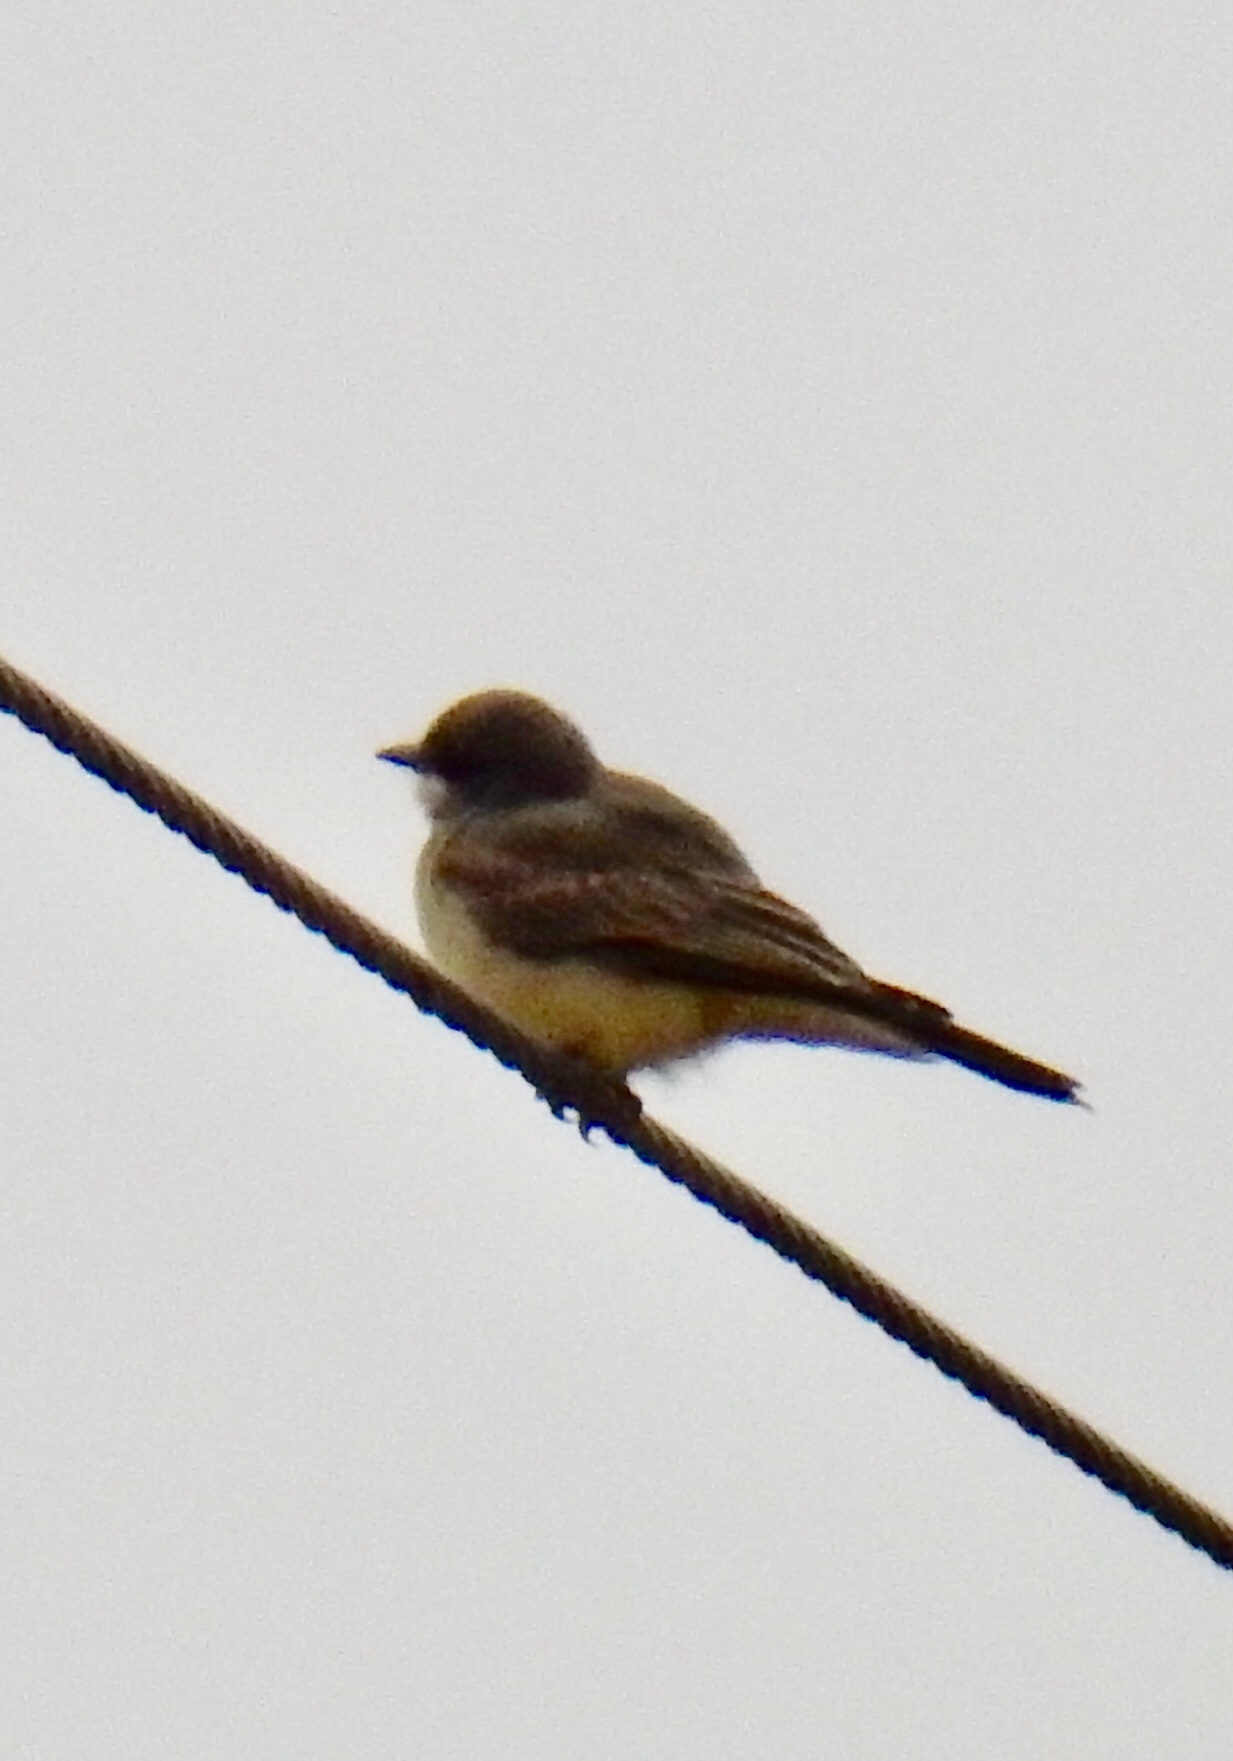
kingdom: Animalia
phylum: Chordata
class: Aves
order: Passeriformes
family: Tyrannidae
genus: Tyrannus
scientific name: Tyrannus vociferans
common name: Cassin's kingbird
